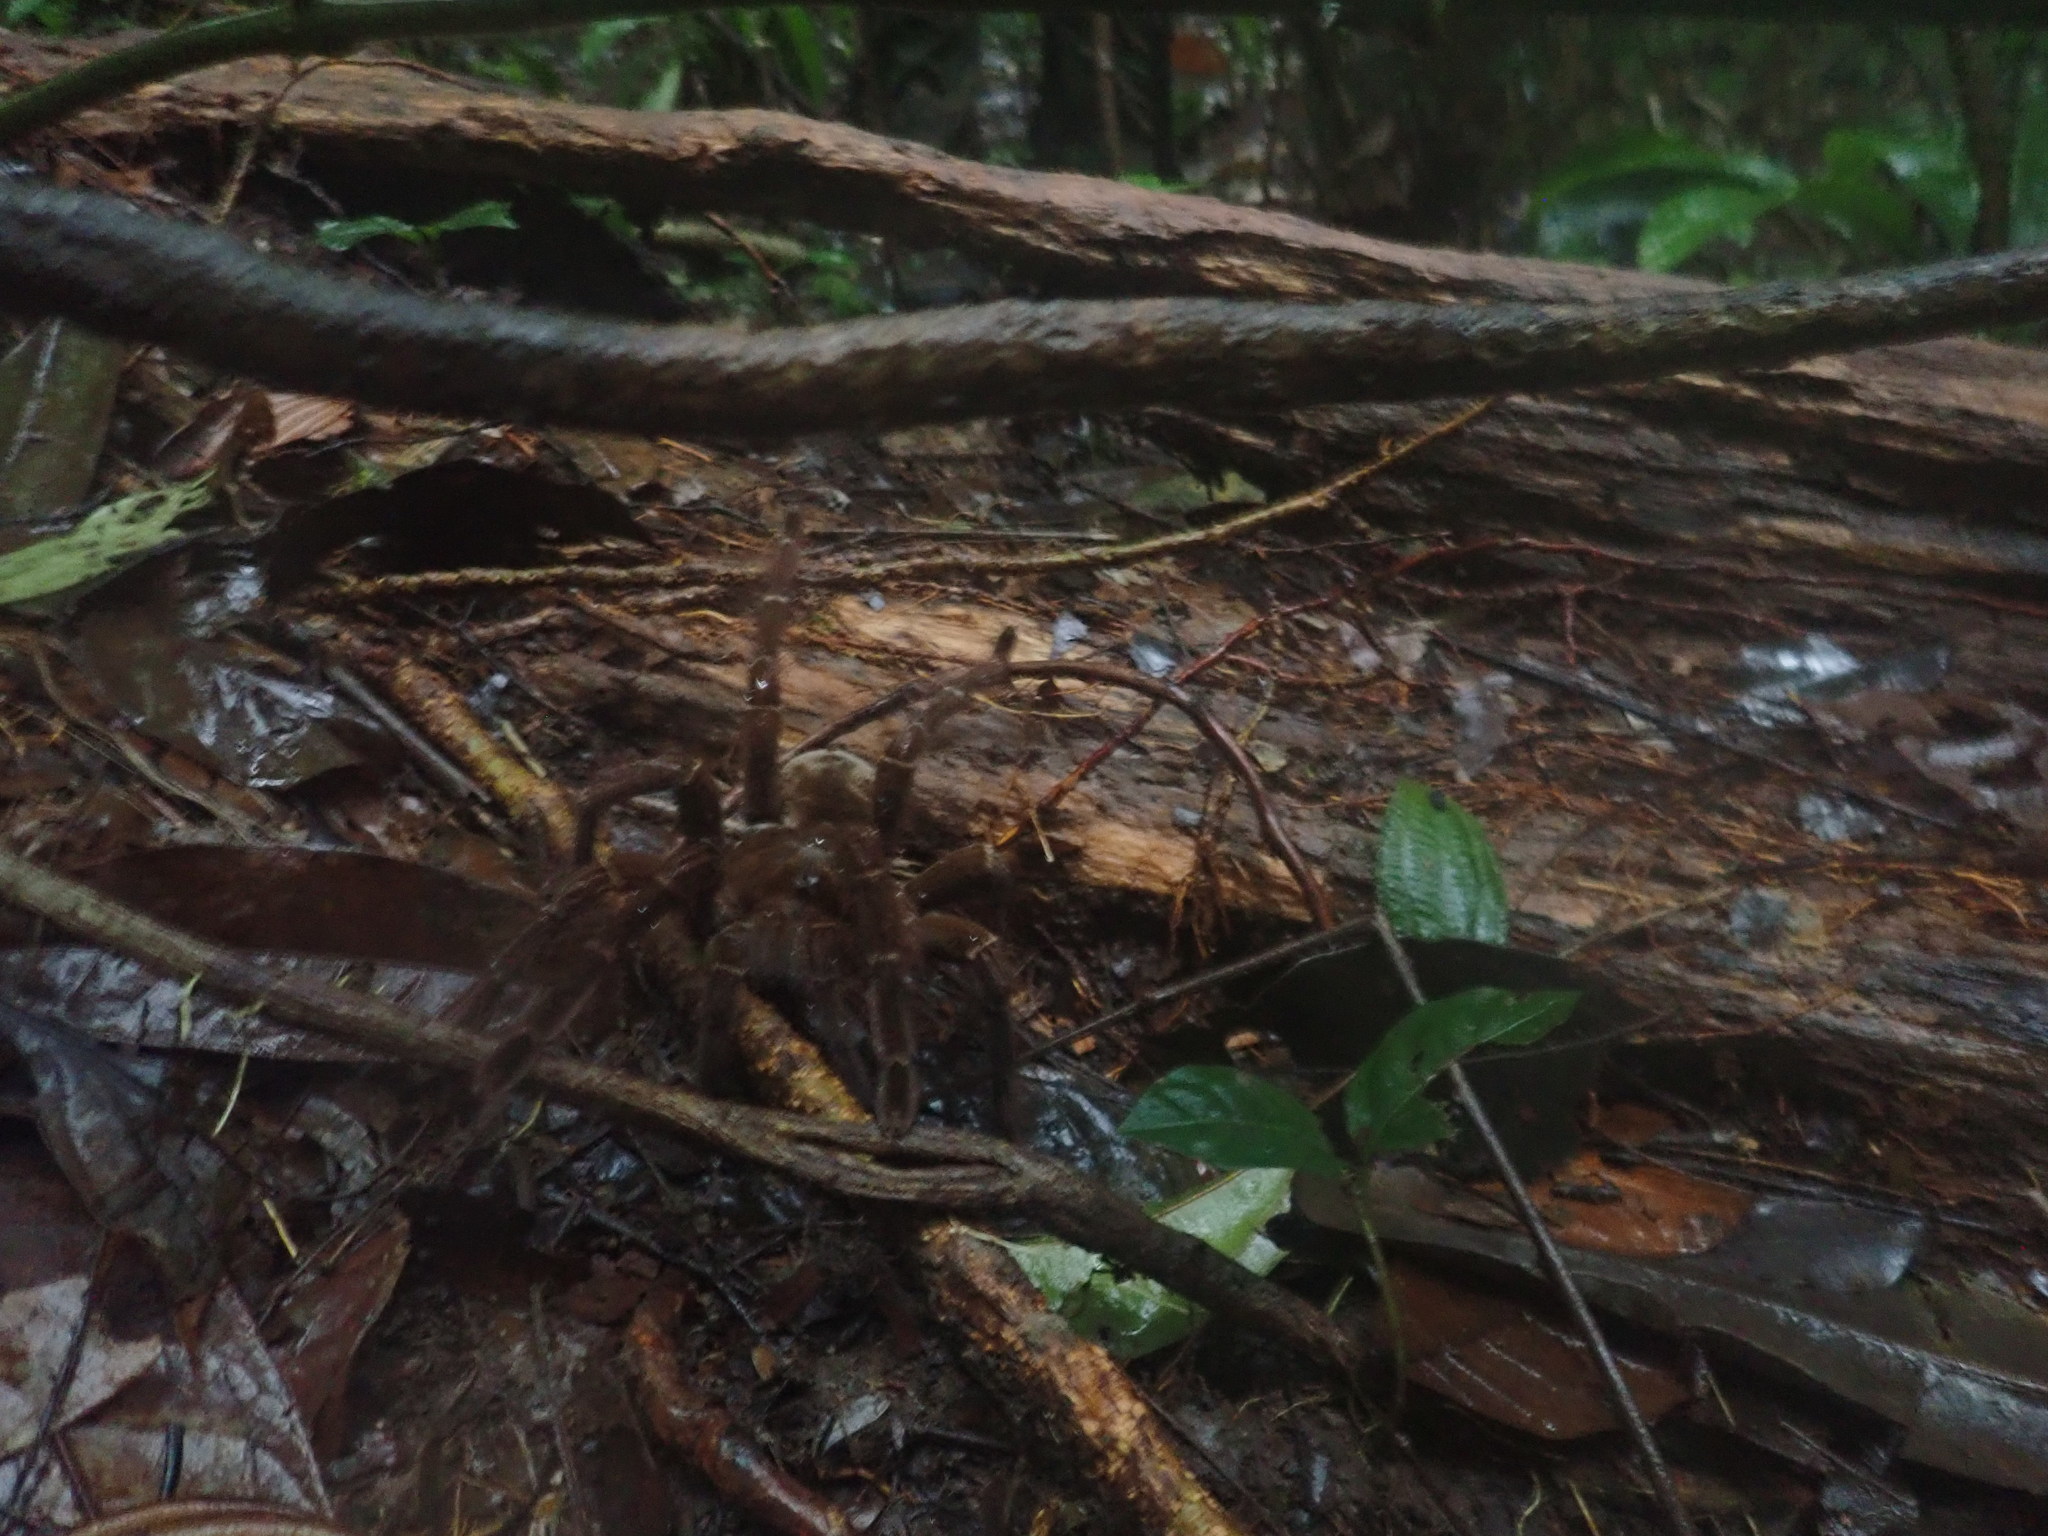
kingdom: Animalia
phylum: Arthropoda
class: Arachnida
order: Araneae
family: Theraphosidae
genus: Theraphosa
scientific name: Theraphosa blondi
